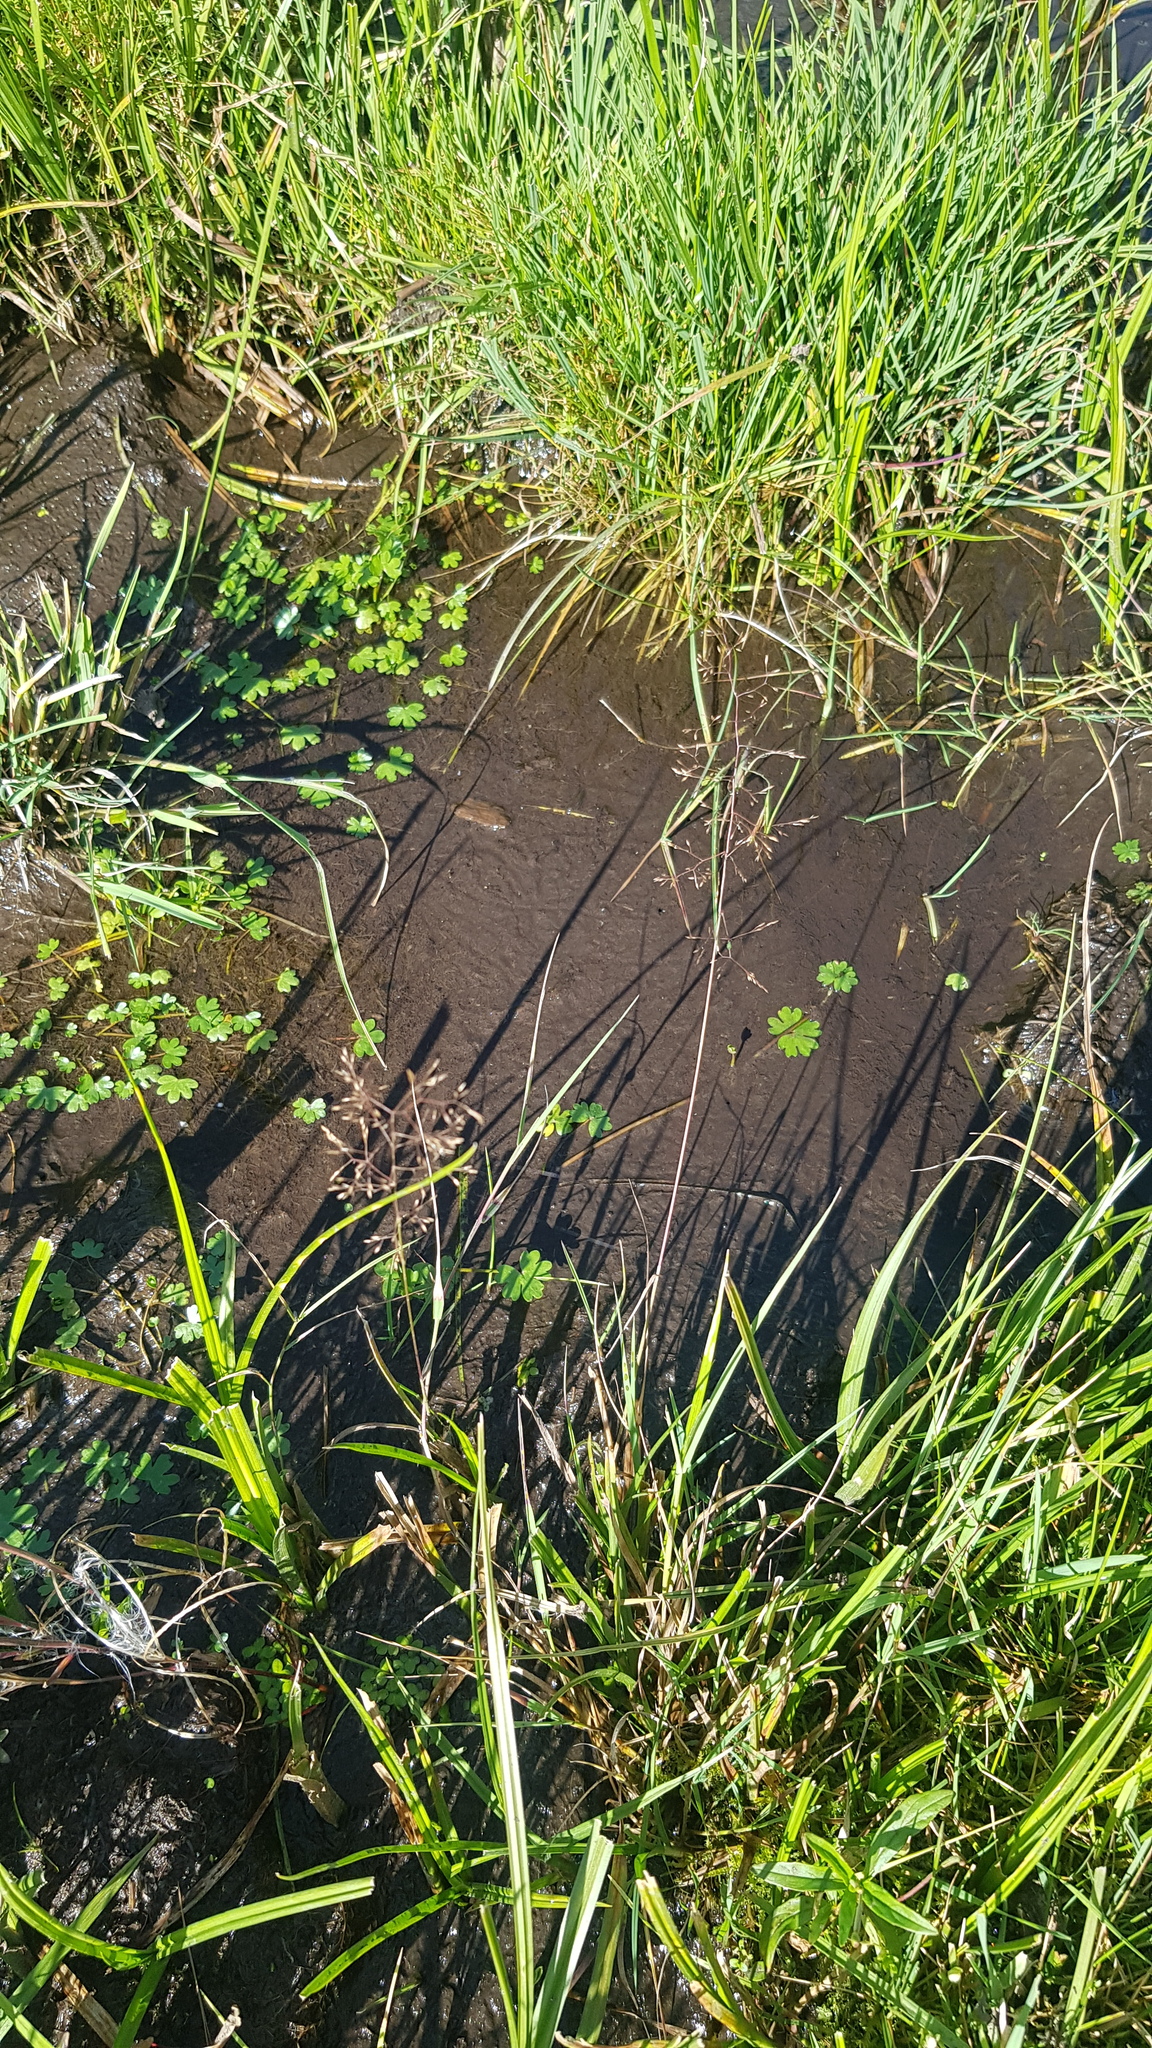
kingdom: Plantae
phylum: Tracheophyta
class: Magnoliopsida
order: Ranunculales
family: Ranunculaceae
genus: Ranunculus
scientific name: Ranunculus aquatilis
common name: Common water-crowfoot
